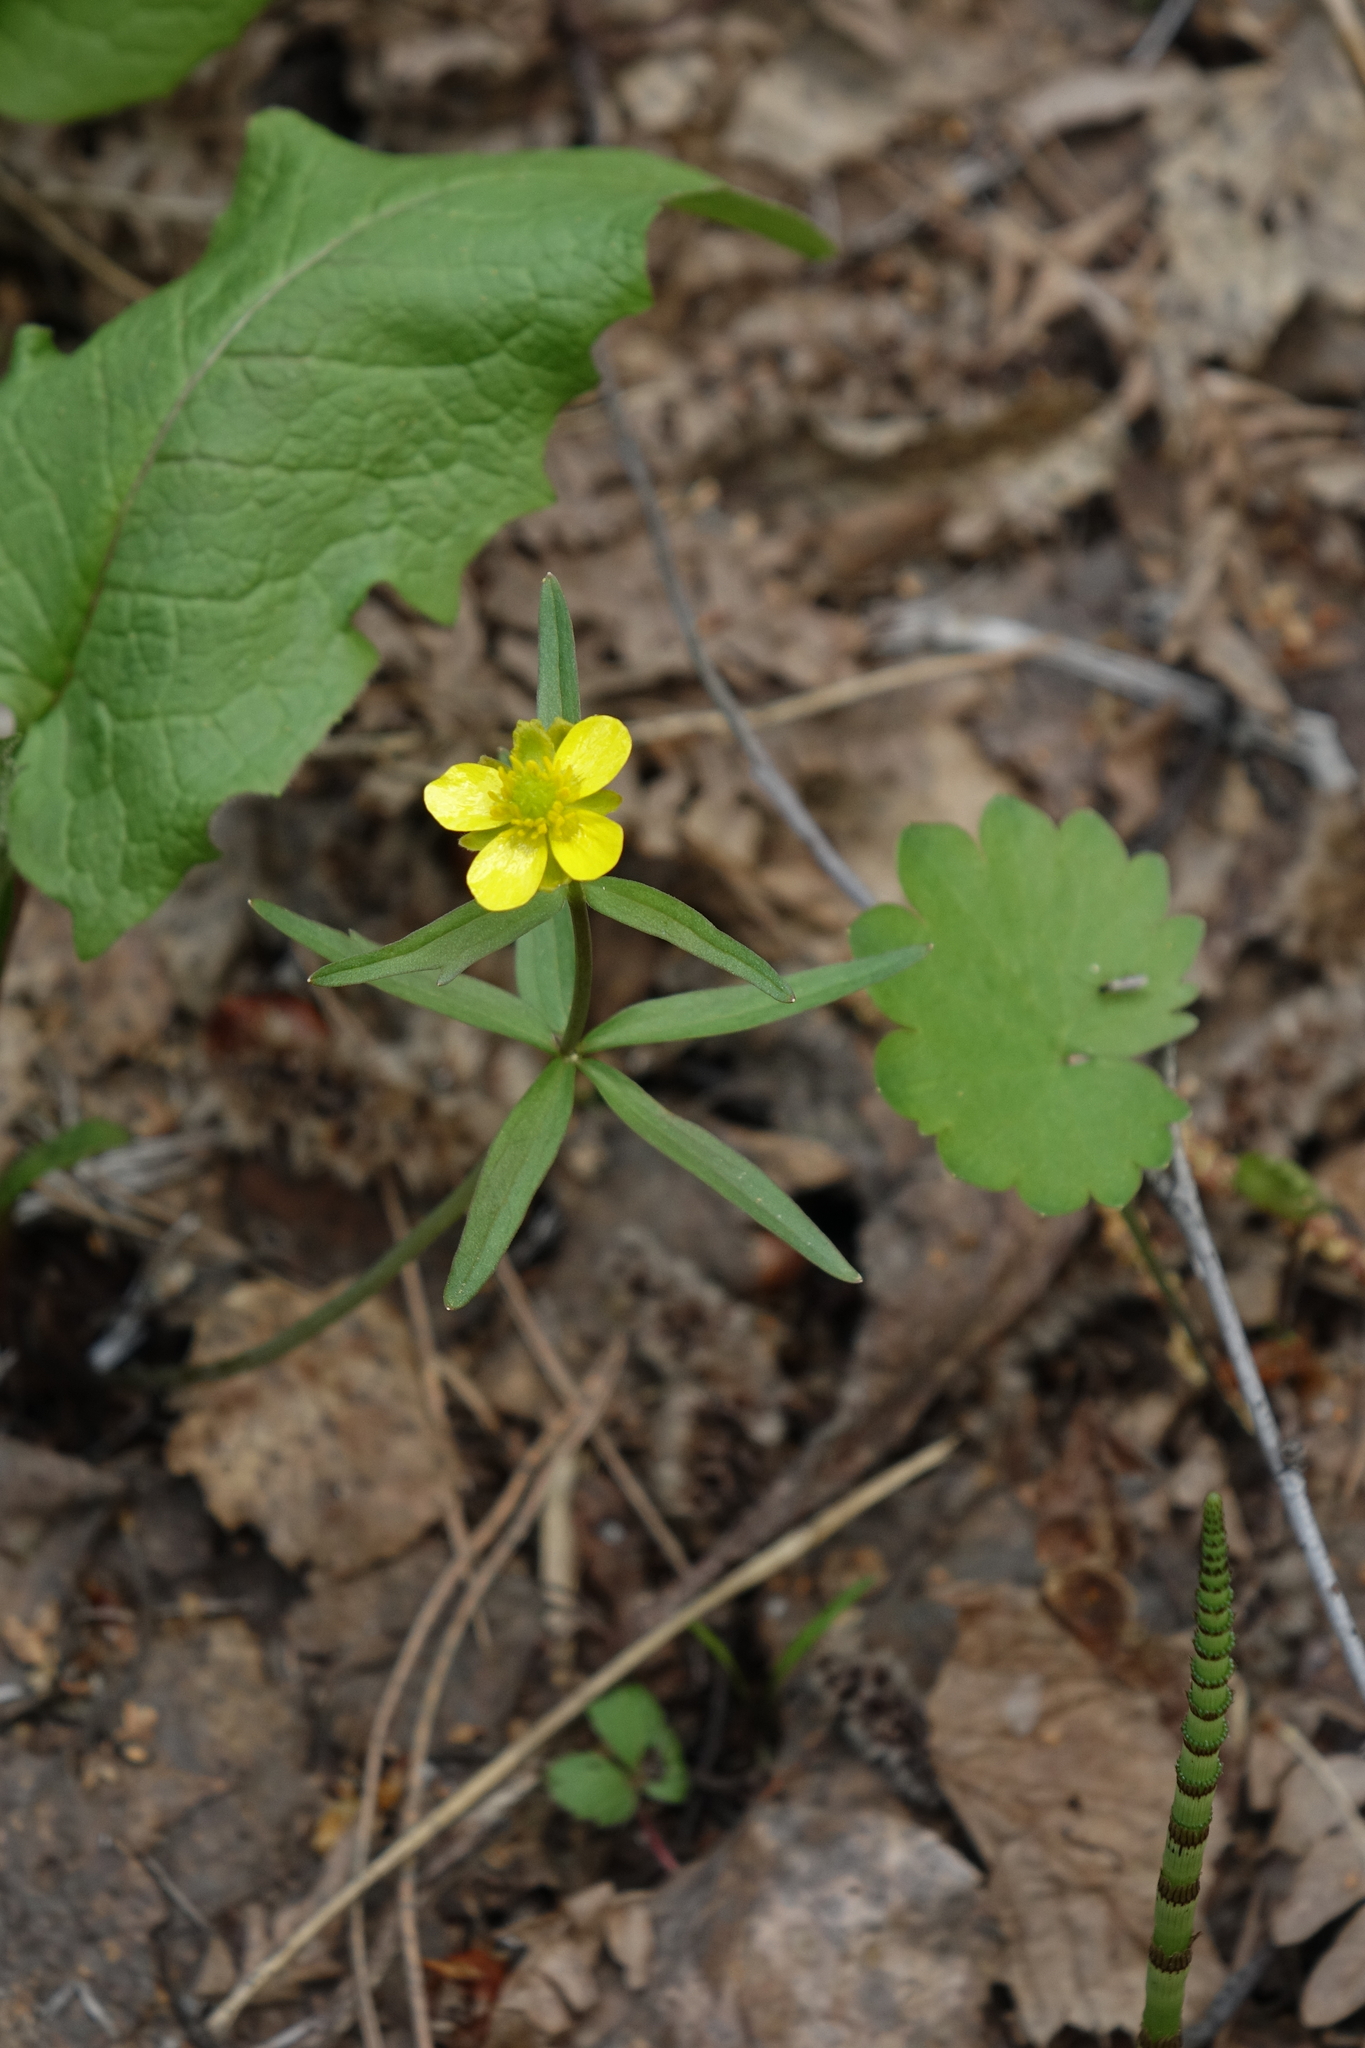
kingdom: Plantae
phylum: Tracheophyta
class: Magnoliopsida
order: Ranunculales
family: Ranunculaceae
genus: Ranunculus
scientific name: Ranunculus monophyllus
